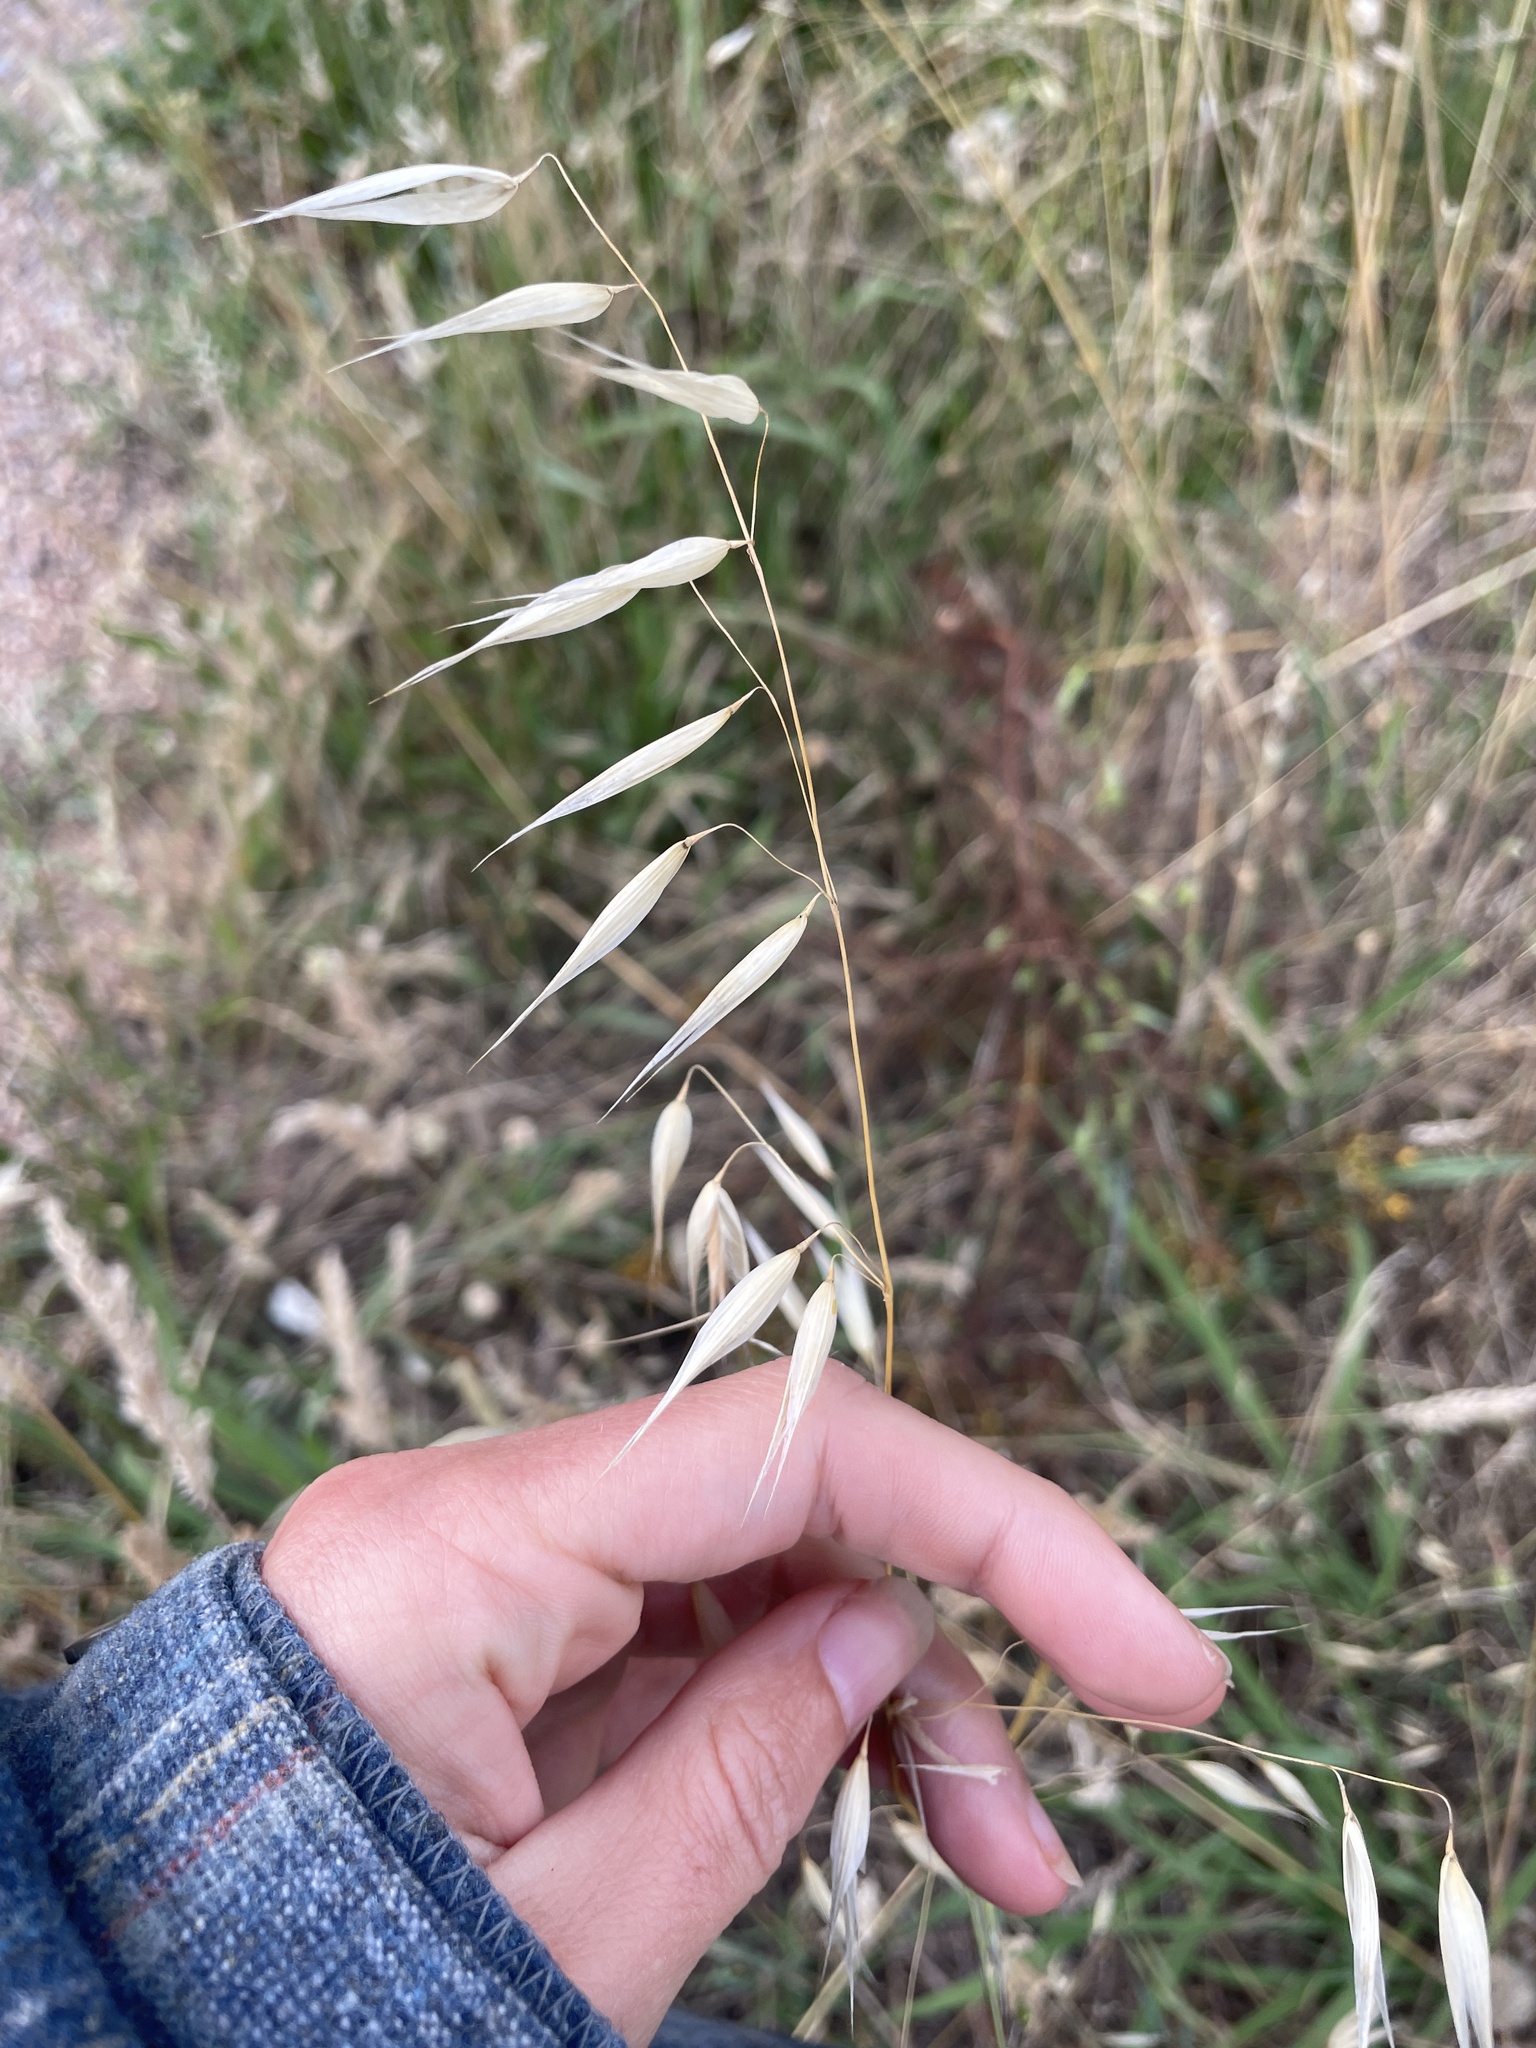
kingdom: Plantae
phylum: Tracheophyta
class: Liliopsida
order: Poales
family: Poaceae
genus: Avena
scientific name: Avena barbata
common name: Slender oat
